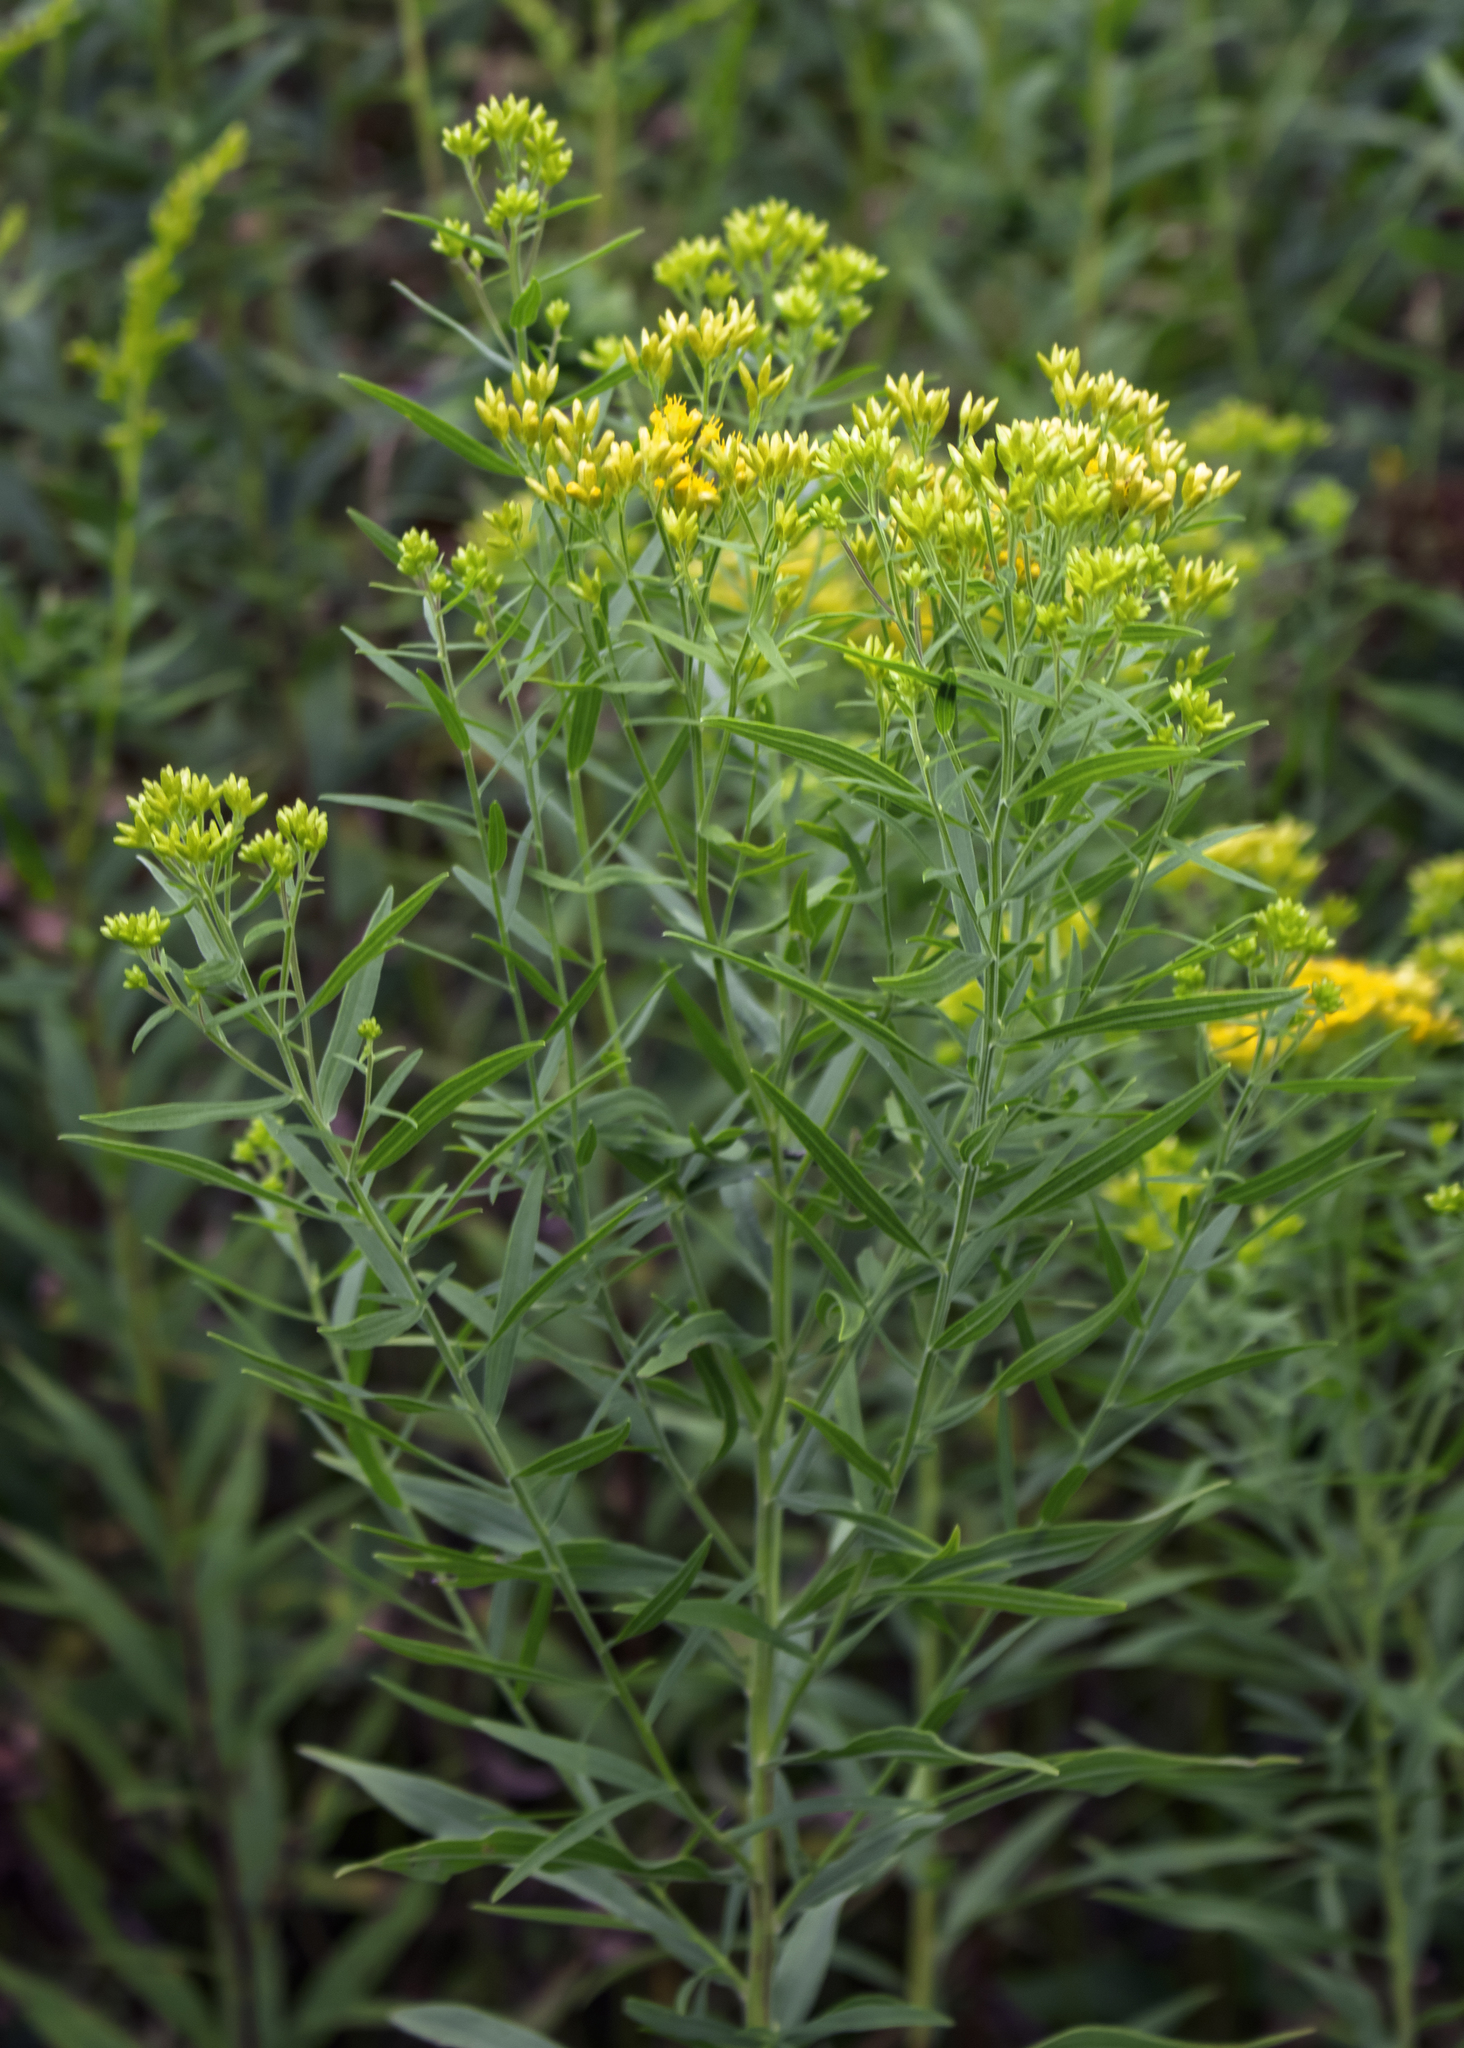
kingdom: Plantae
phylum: Tracheophyta
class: Magnoliopsida
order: Asterales
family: Asteraceae
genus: Euthamia
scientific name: Euthamia graminifolia
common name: Common goldentop
